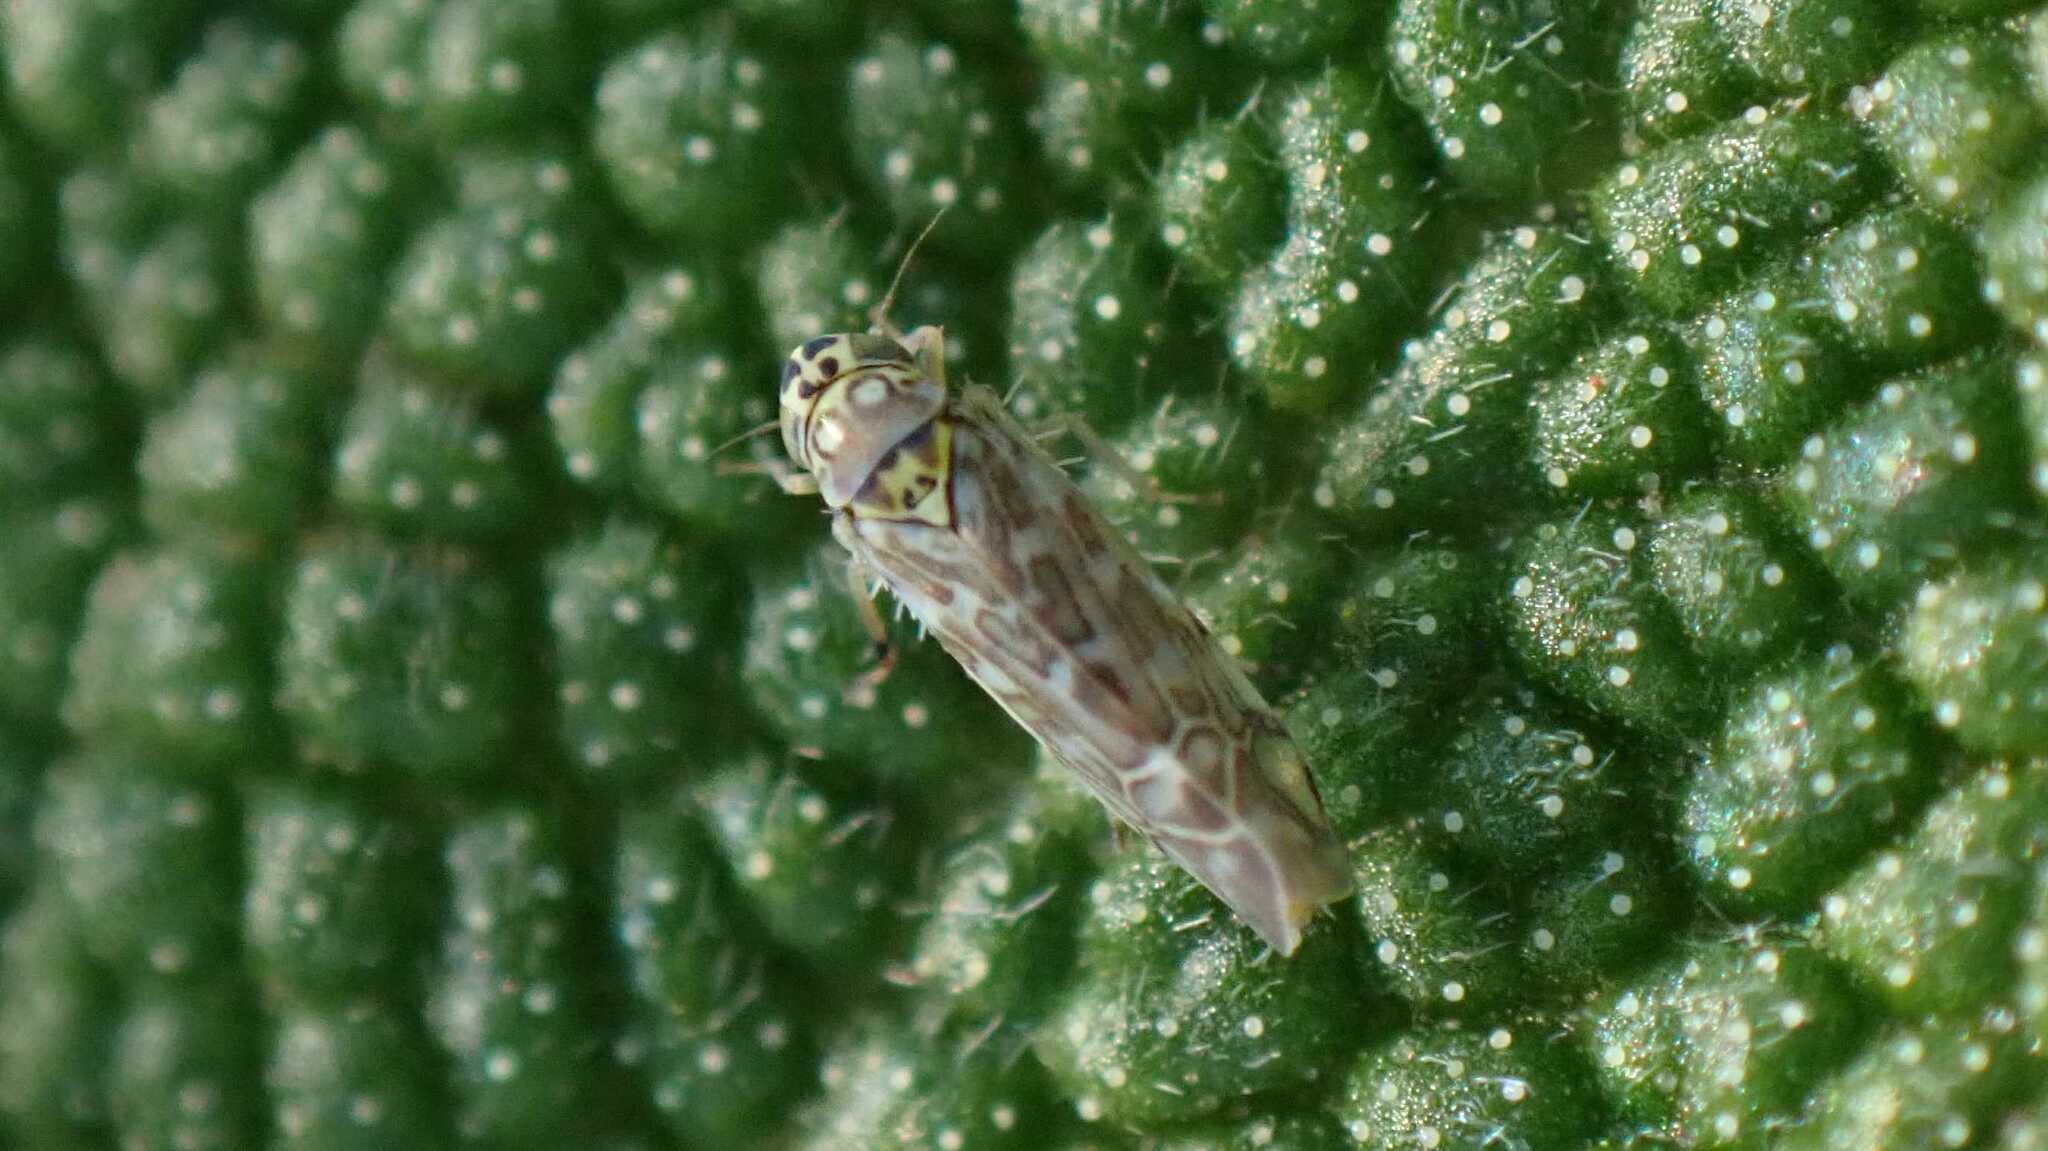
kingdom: Animalia
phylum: Arthropoda
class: Insecta
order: Hemiptera
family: Cicadellidae
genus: Eupteryx
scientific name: Eupteryx decemnotata
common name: Ligurian leafhopper
